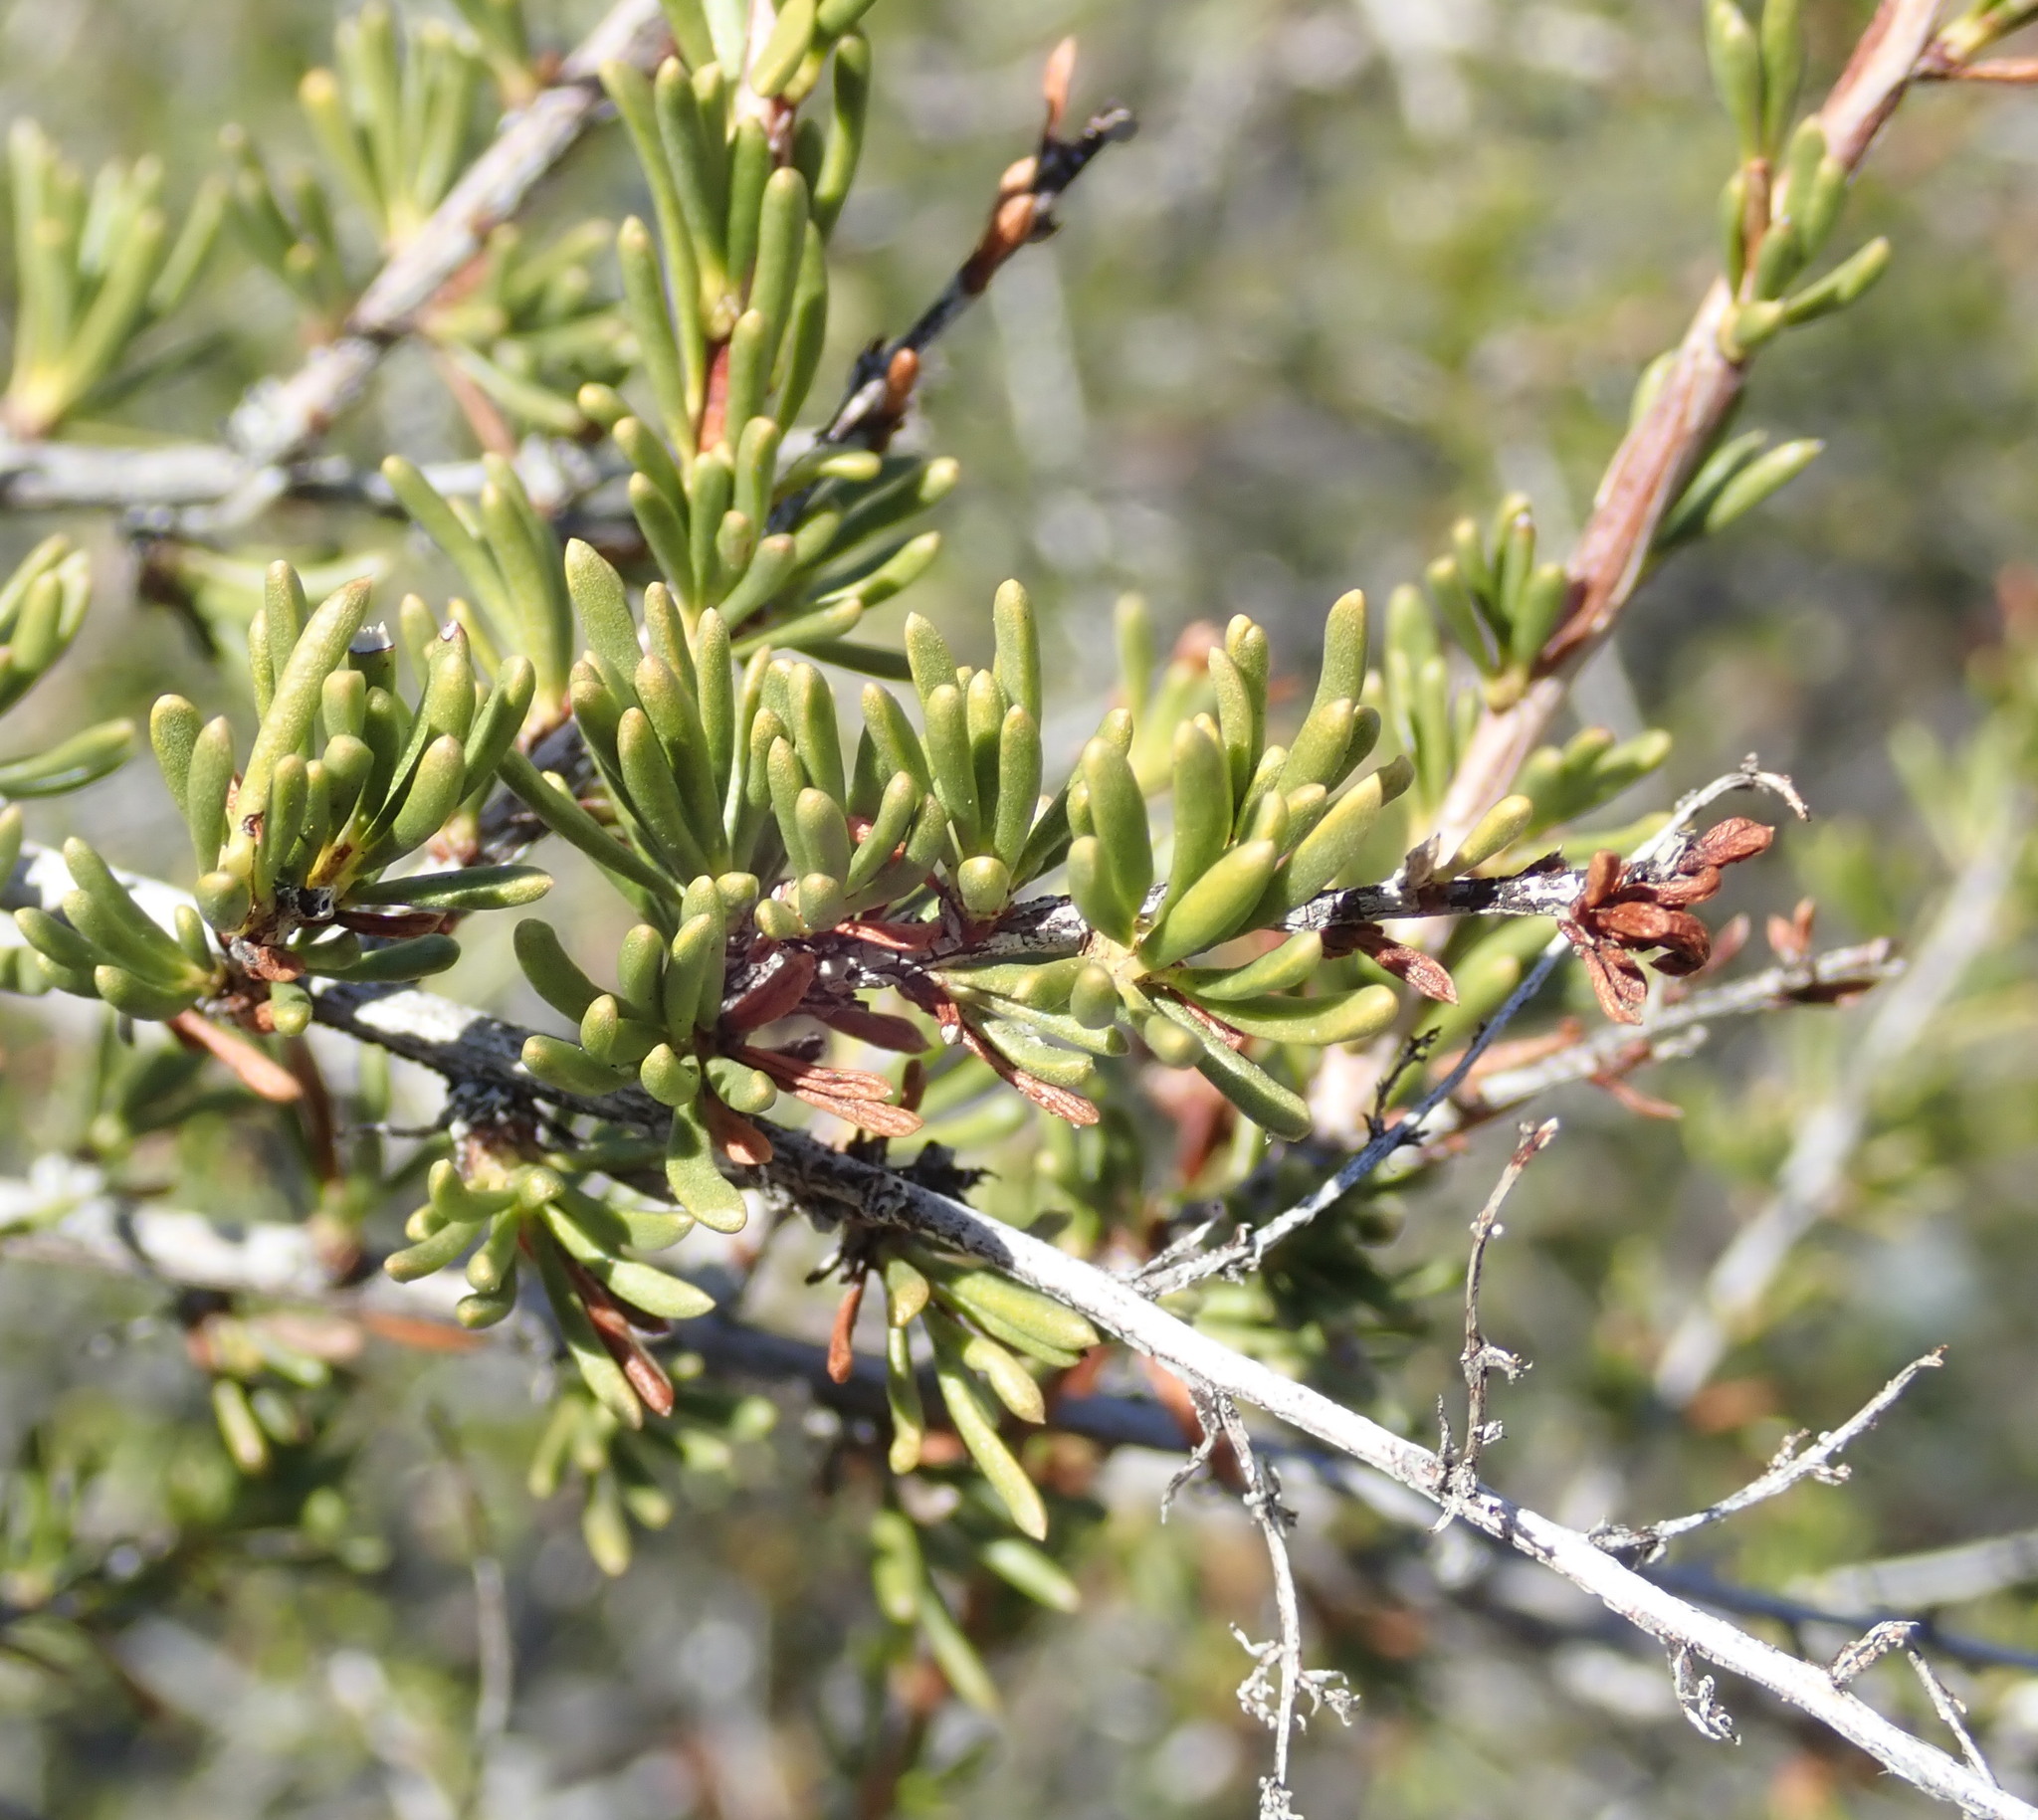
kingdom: Plantae
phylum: Tracheophyta
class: Magnoliopsida
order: Rosales
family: Rosaceae
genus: Adenostoma
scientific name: Adenostoma fasciculatum
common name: Chamise
